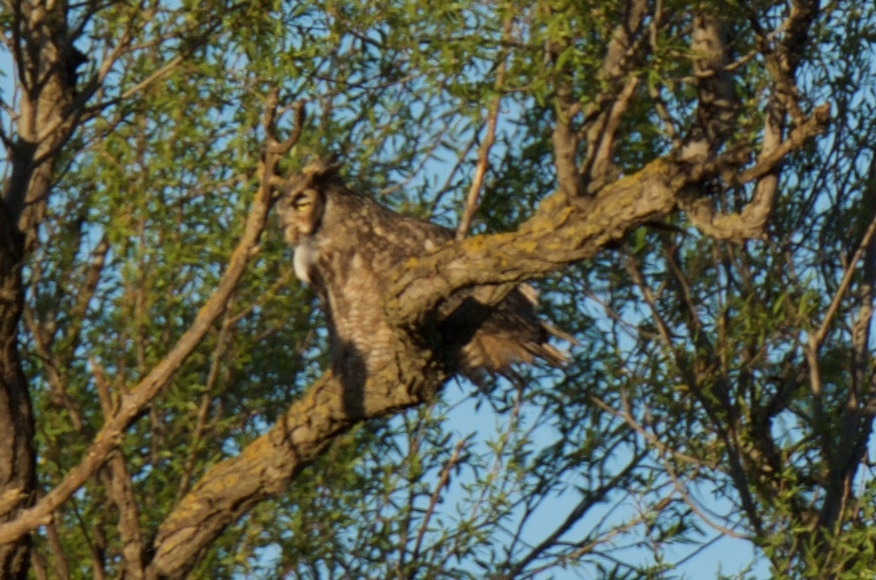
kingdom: Animalia
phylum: Chordata
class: Aves
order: Strigiformes
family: Strigidae
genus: Bubo
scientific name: Bubo virginianus
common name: Great horned owl
